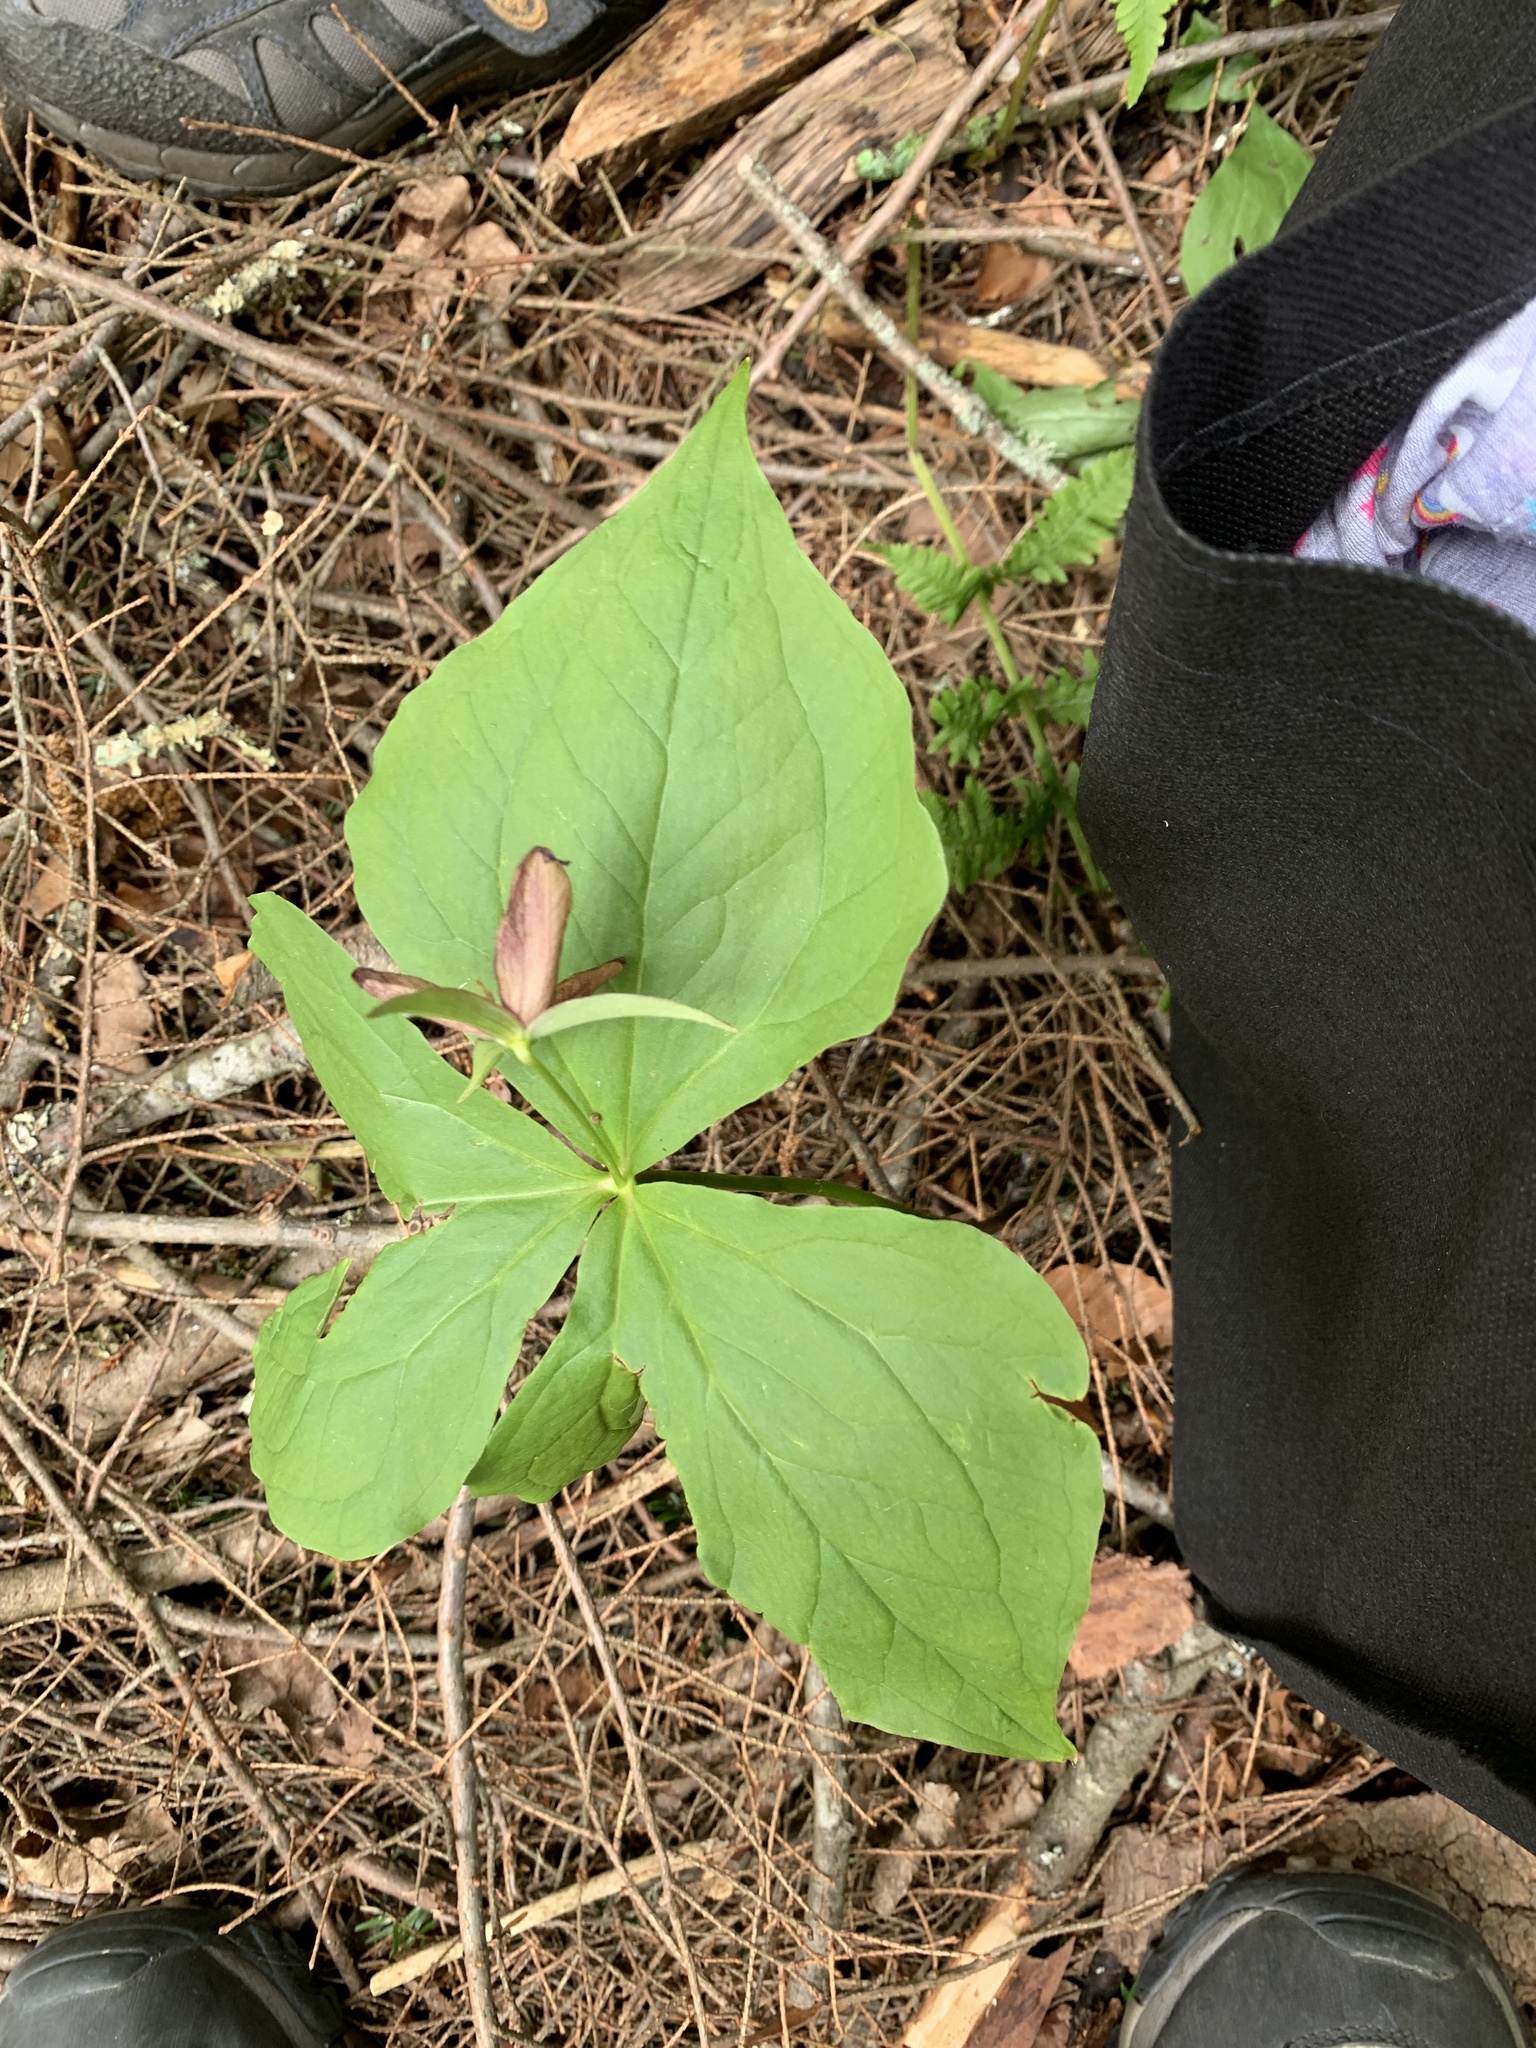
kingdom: Plantae
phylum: Tracheophyta
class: Liliopsida
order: Liliales
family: Melanthiaceae
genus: Trillium
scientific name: Trillium erectum
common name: Purple trillium
